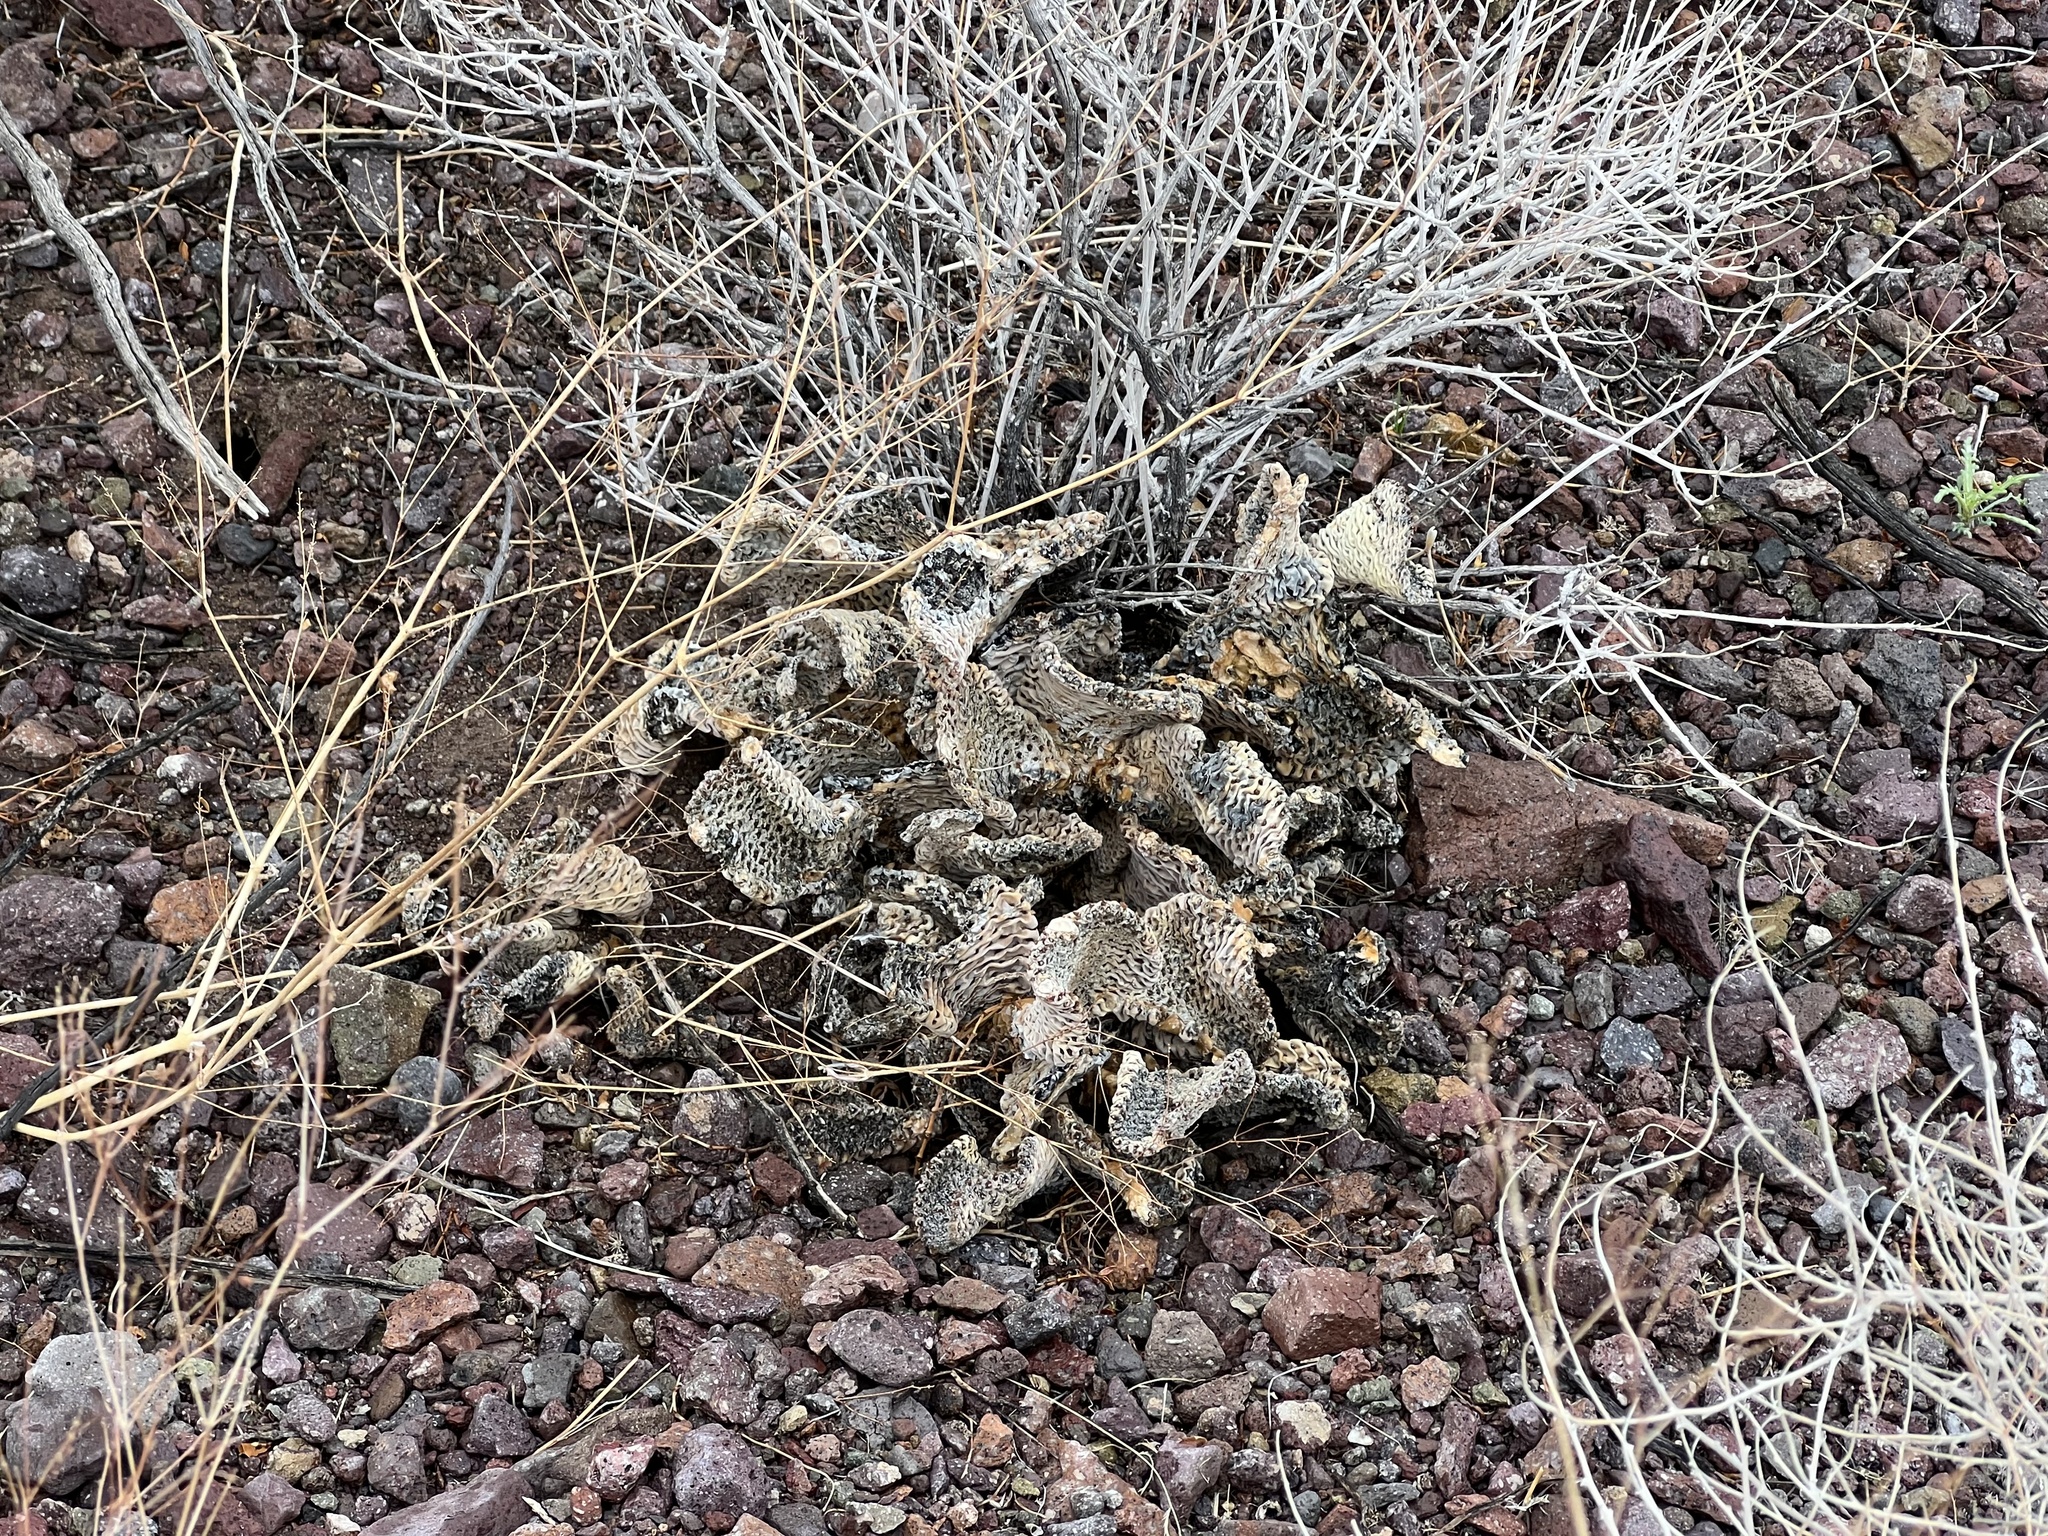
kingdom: Plantae
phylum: Tracheophyta
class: Magnoliopsida
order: Caryophyllales
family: Cactaceae
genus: Opuntia
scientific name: Opuntia basilaris
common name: Beavertail prickly-pear
